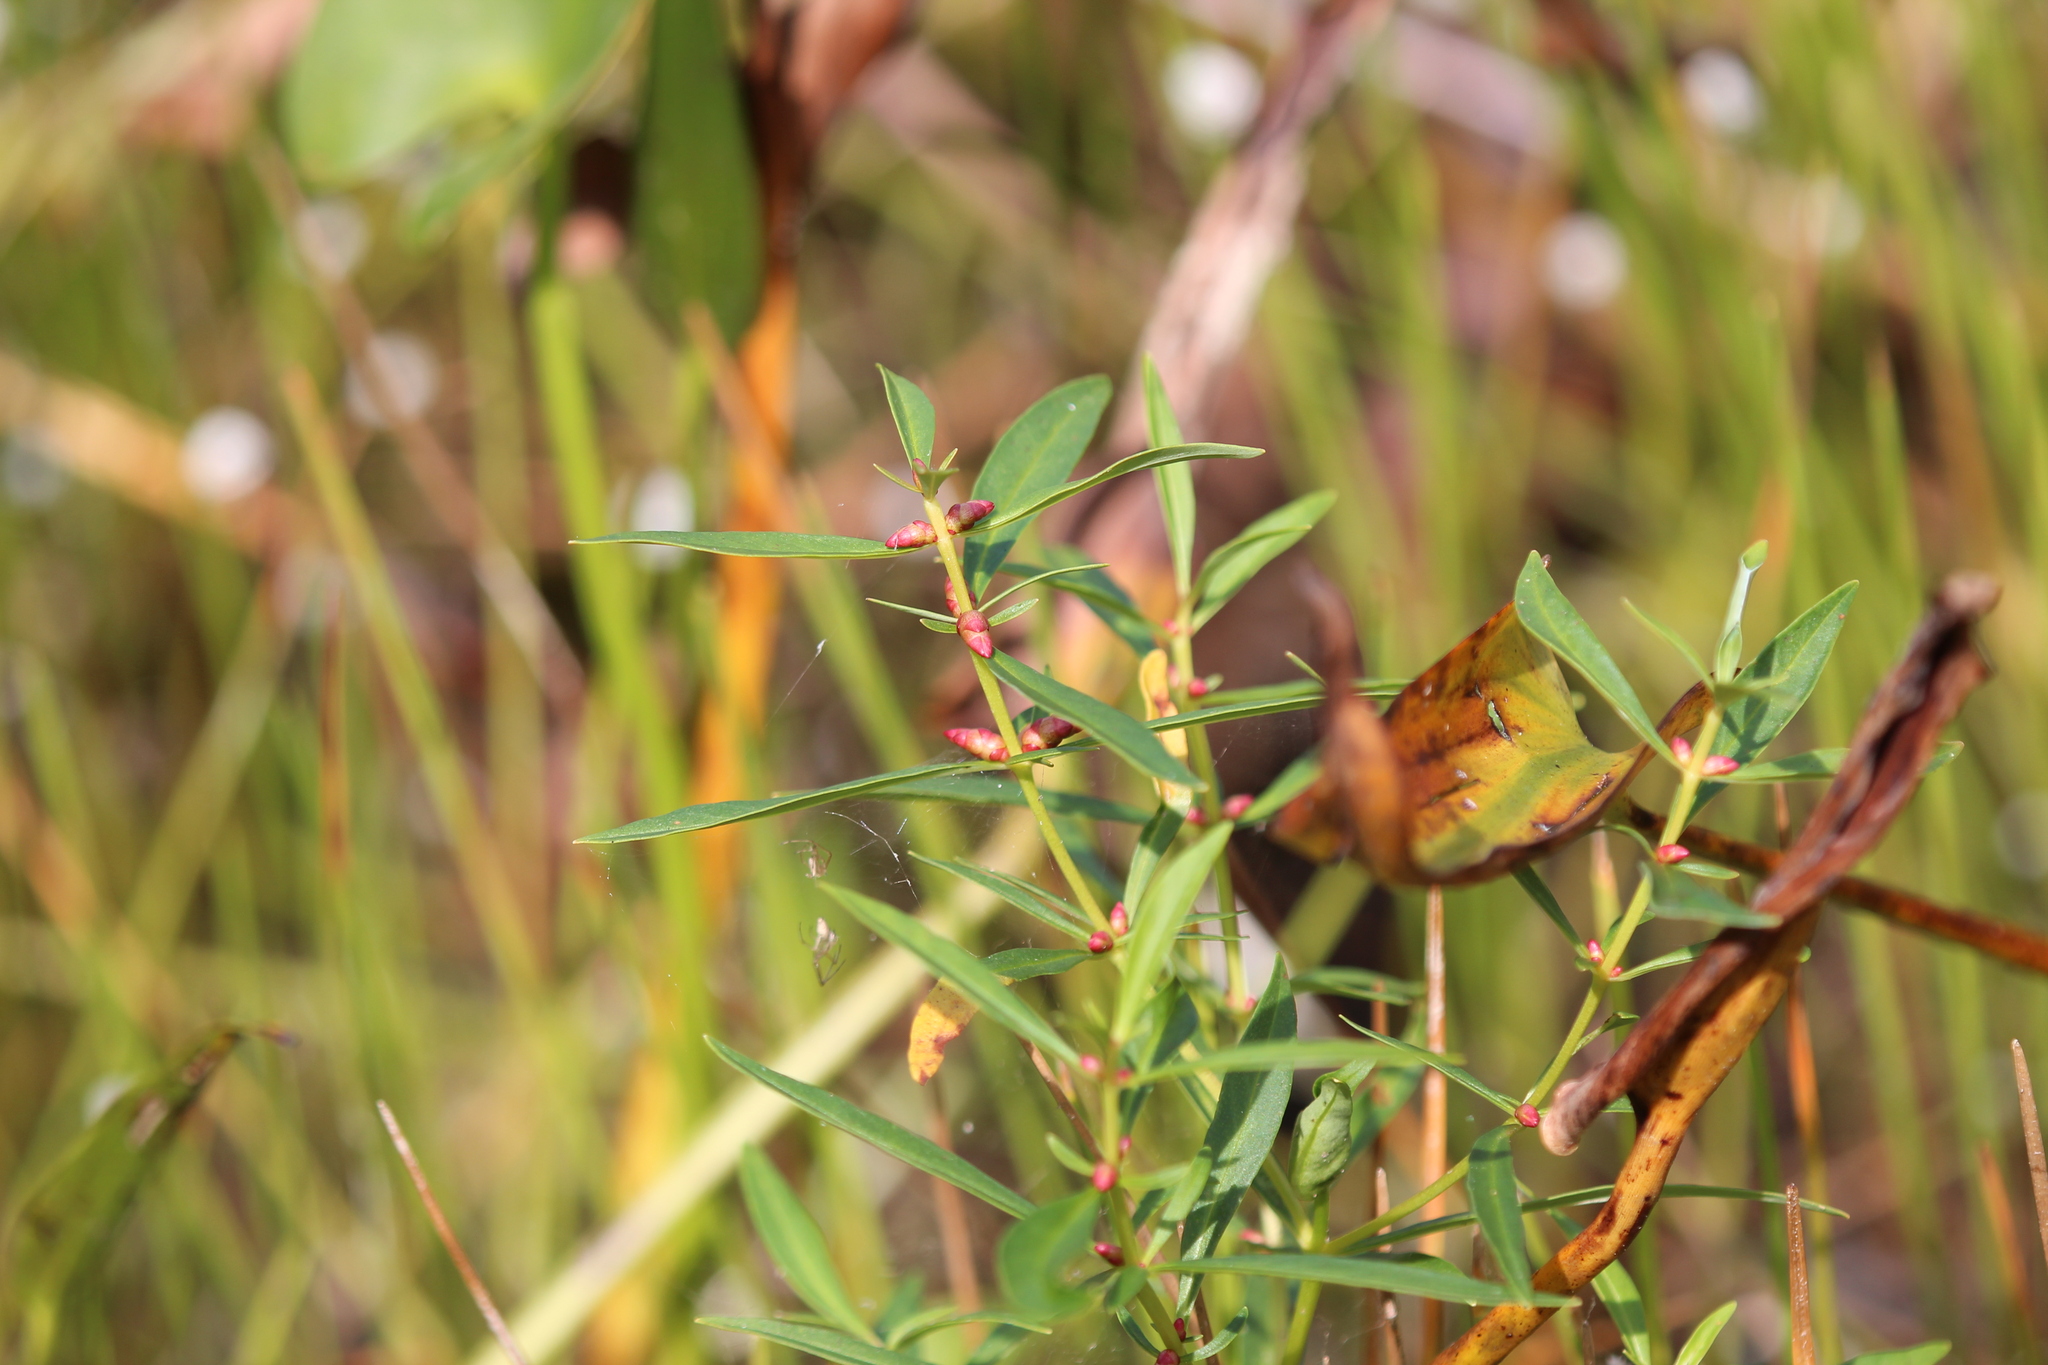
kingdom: Plantae
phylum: Tracheophyta
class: Magnoliopsida
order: Ericales
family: Primulaceae
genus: Lysimachia
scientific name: Lysimachia terrestris
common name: Lake loosestrife
